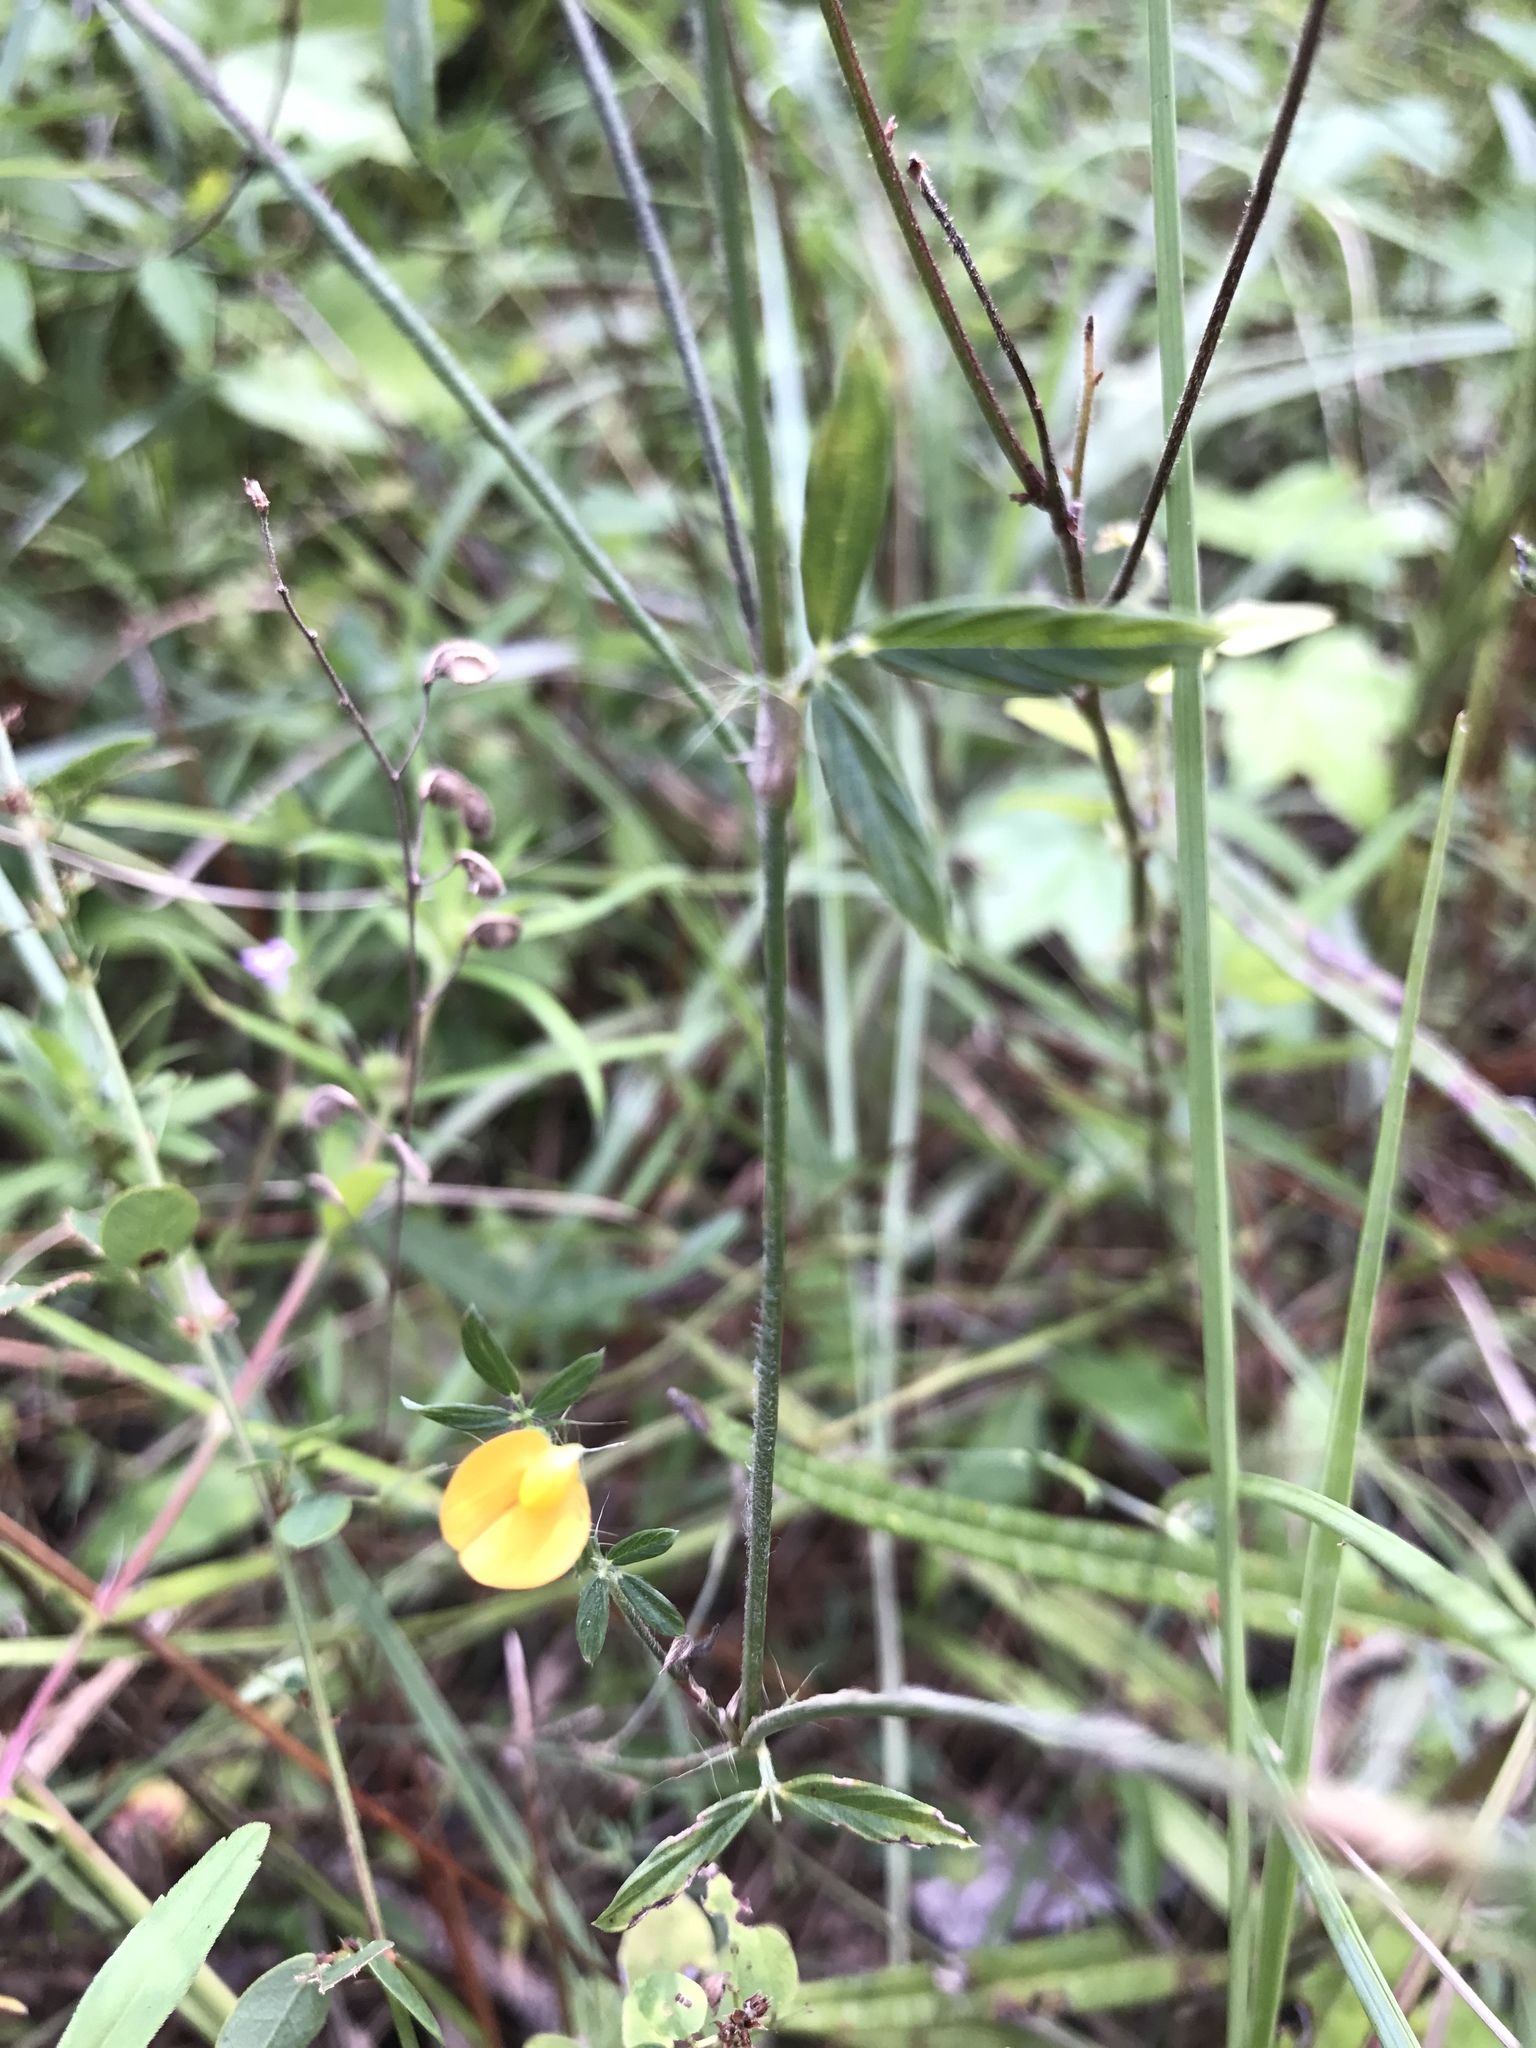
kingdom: Plantae
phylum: Tracheophyta
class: Magnoliopsida
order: Fabales
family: Fabaceae
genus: Stylosanthes
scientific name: Stylosanthes biflora
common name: Two-flower pencil-flower
